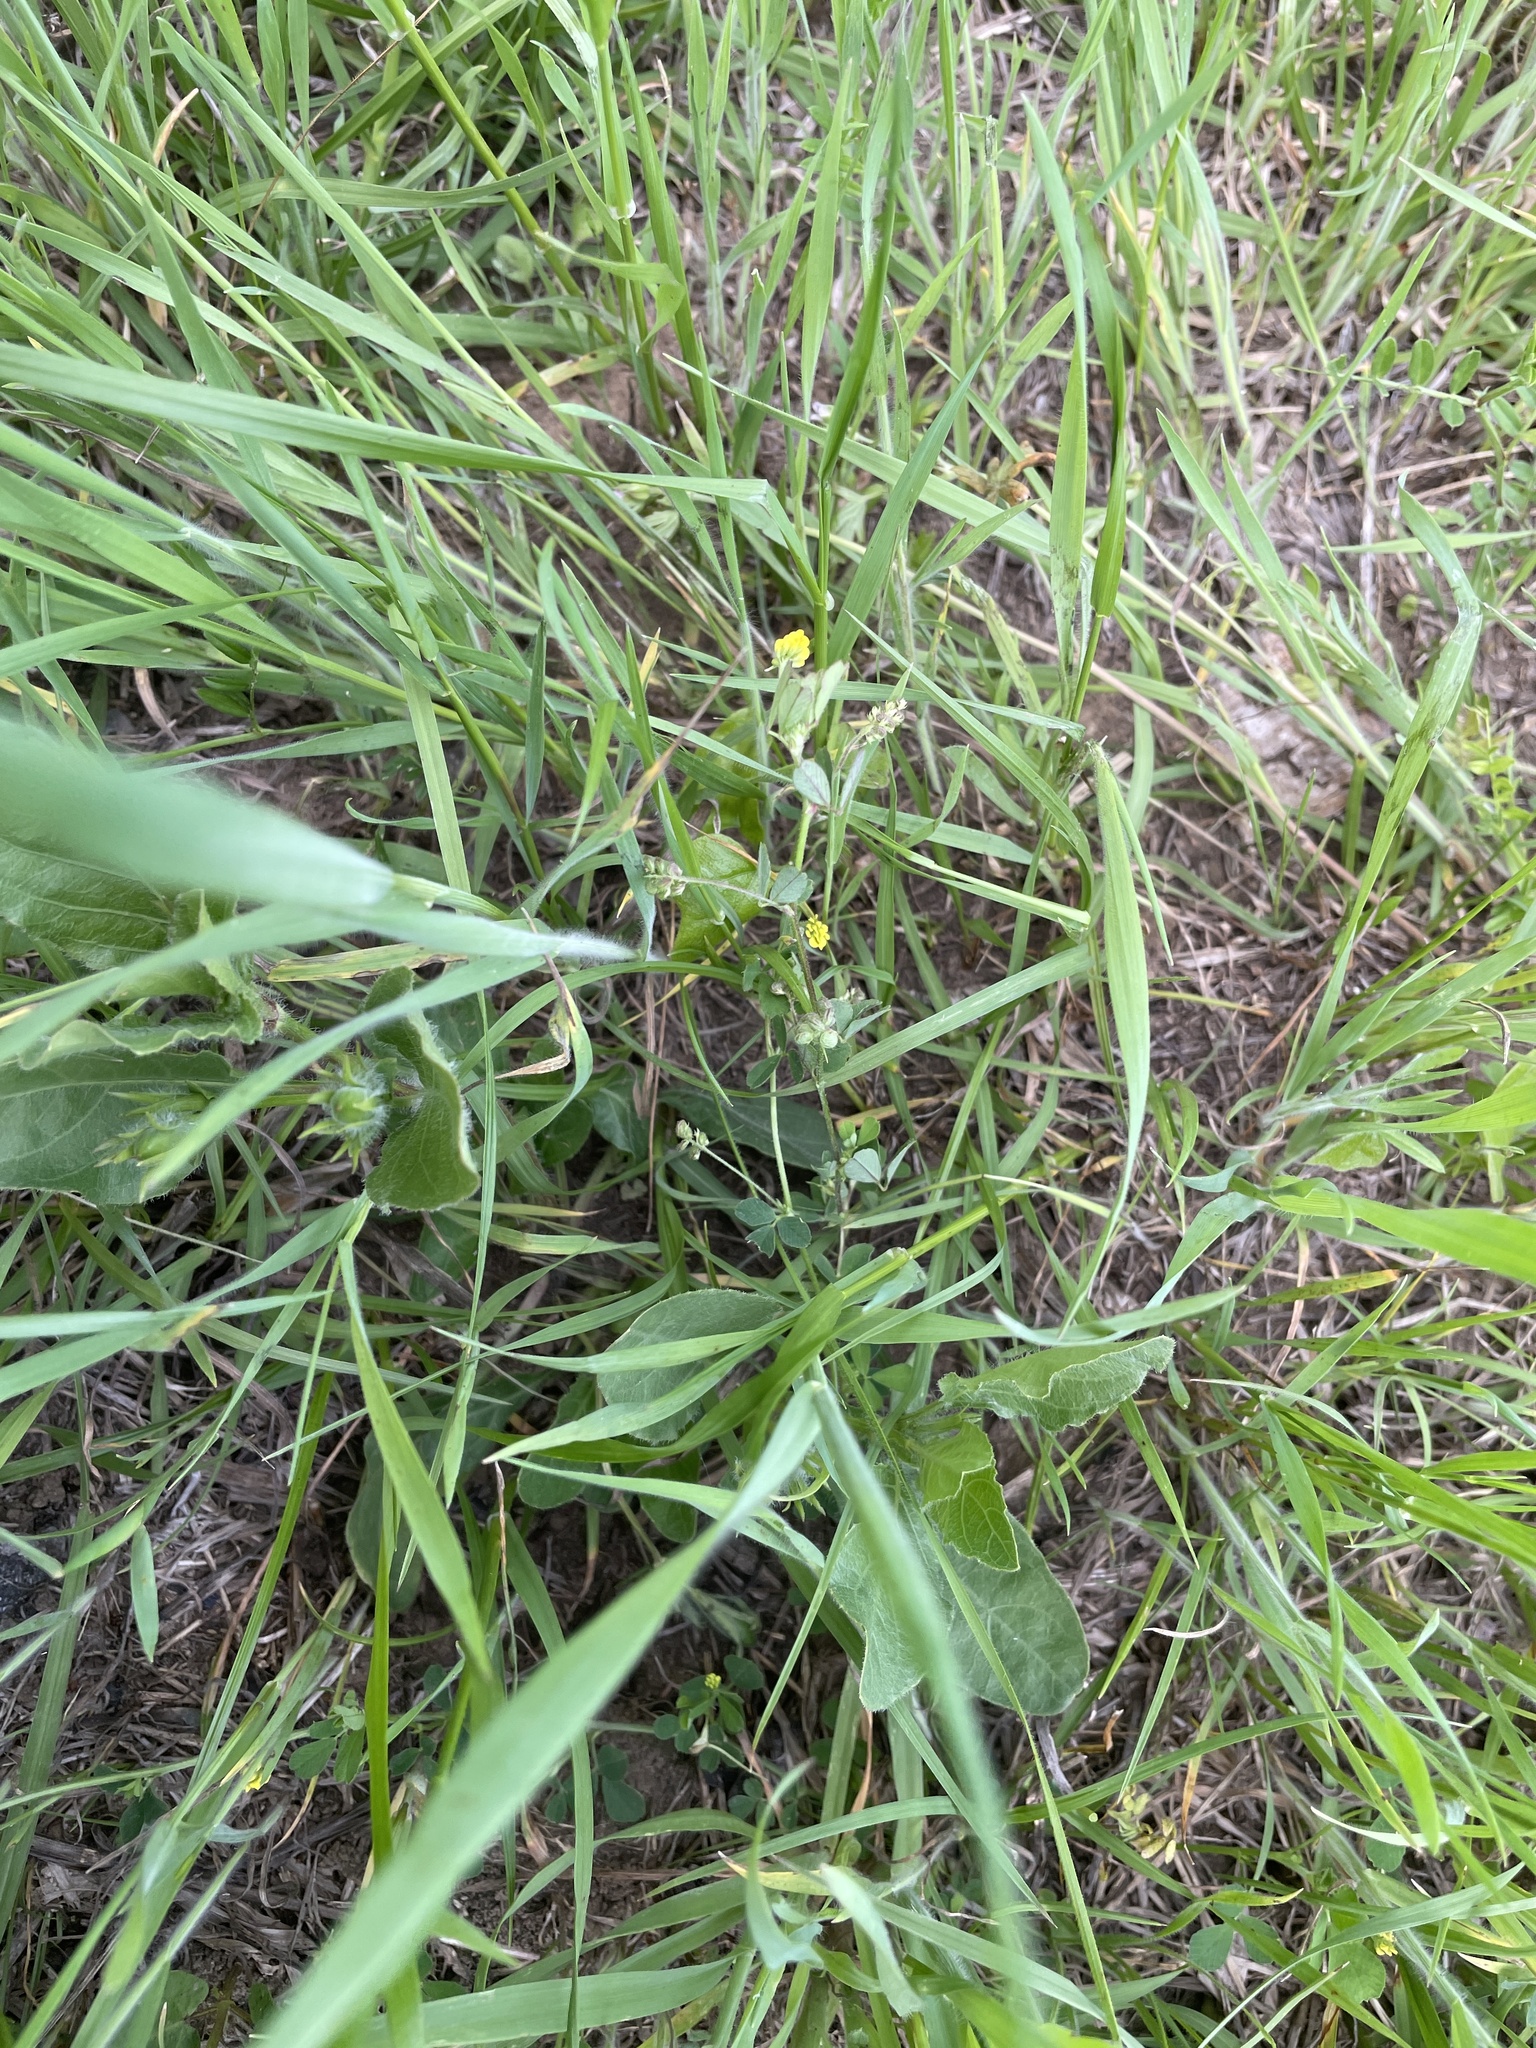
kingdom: Plantae
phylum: Tracheophyta
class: Magnoliopsida
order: Fabales
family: Fabaceae
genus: Medicago
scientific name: Medicago lupulina
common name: Black medick
